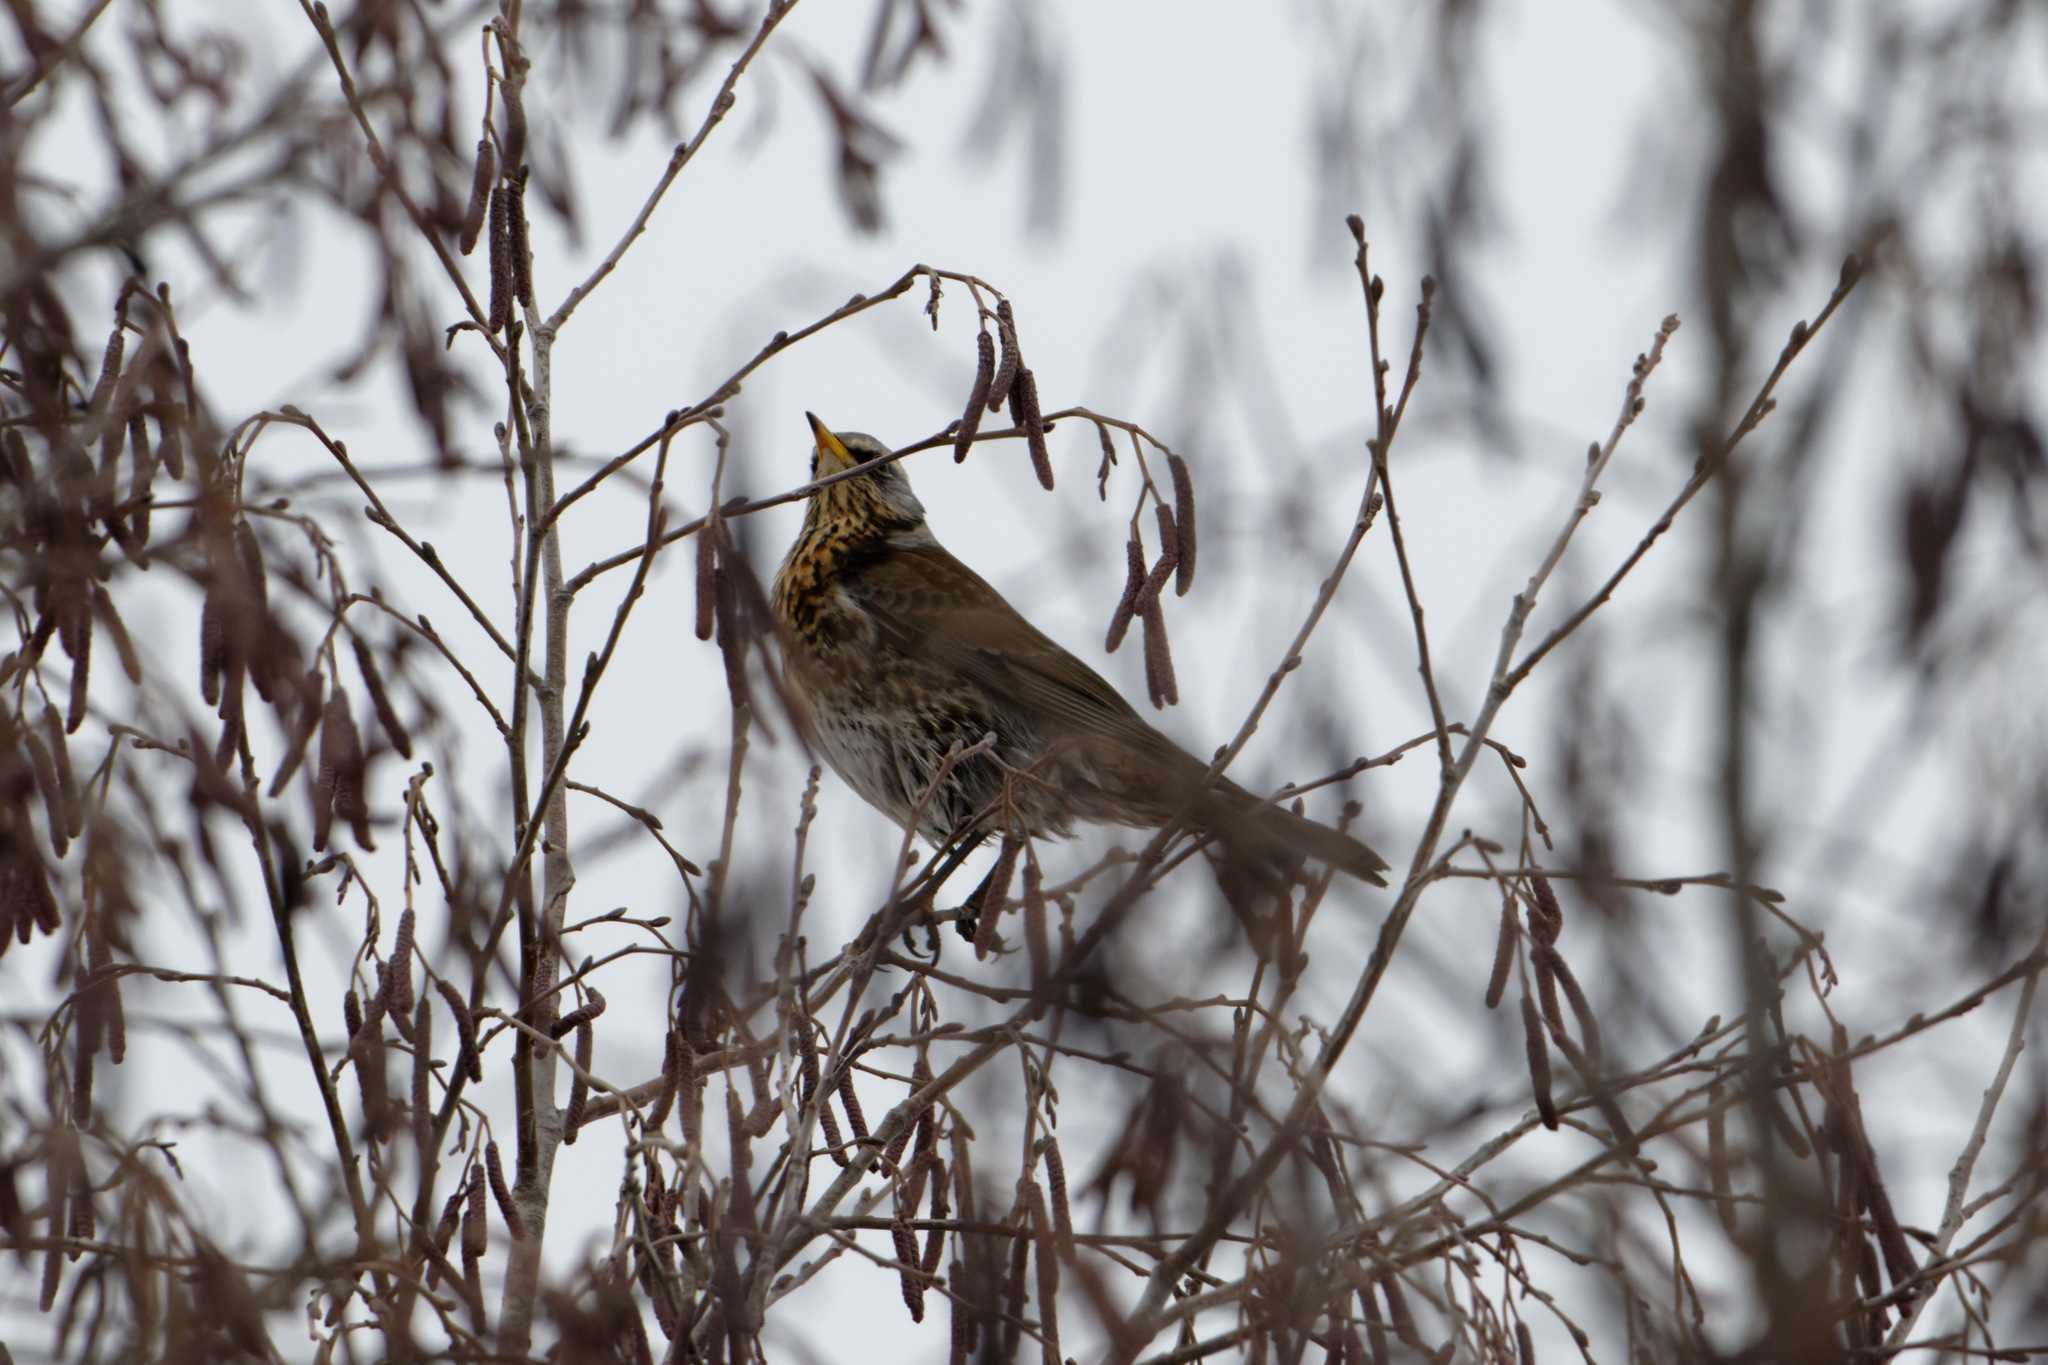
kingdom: Animalia
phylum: Chordata
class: Aves
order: Passeriformes
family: Turdidae
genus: Turdus
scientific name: Turdus pilaris
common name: Fieldfare
